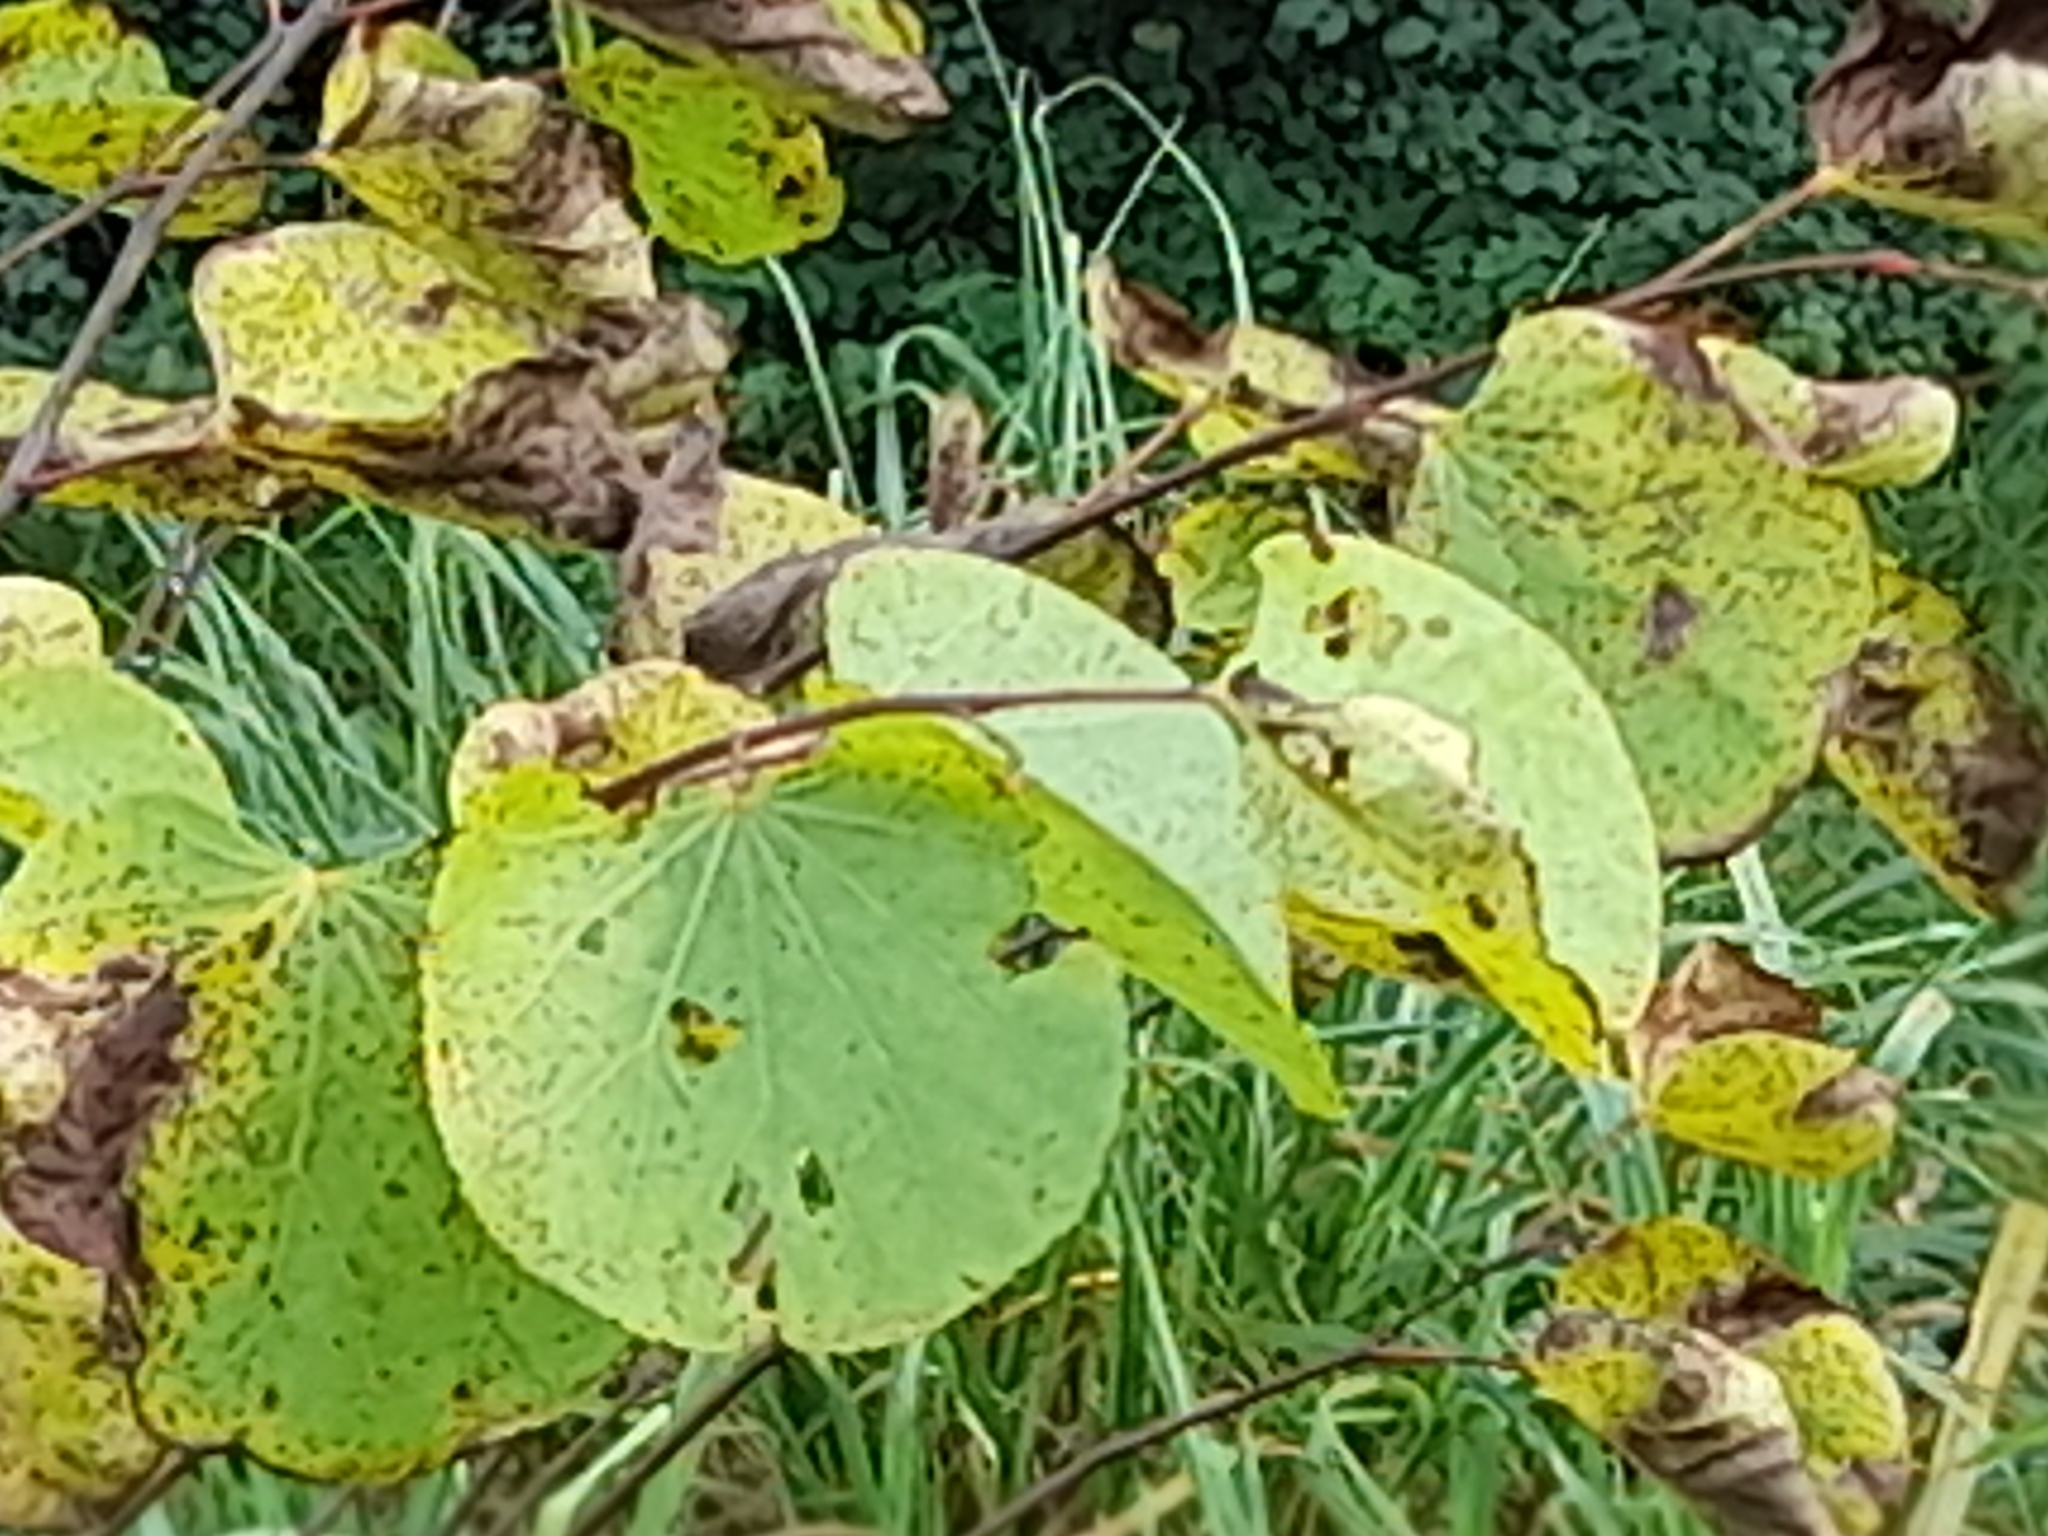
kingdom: Plantae
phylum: Tracheophyta
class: Magnoliopsida
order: Fabales
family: Fabaceae
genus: Cercis
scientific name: Cercis siliquastrum
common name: Judas tree
